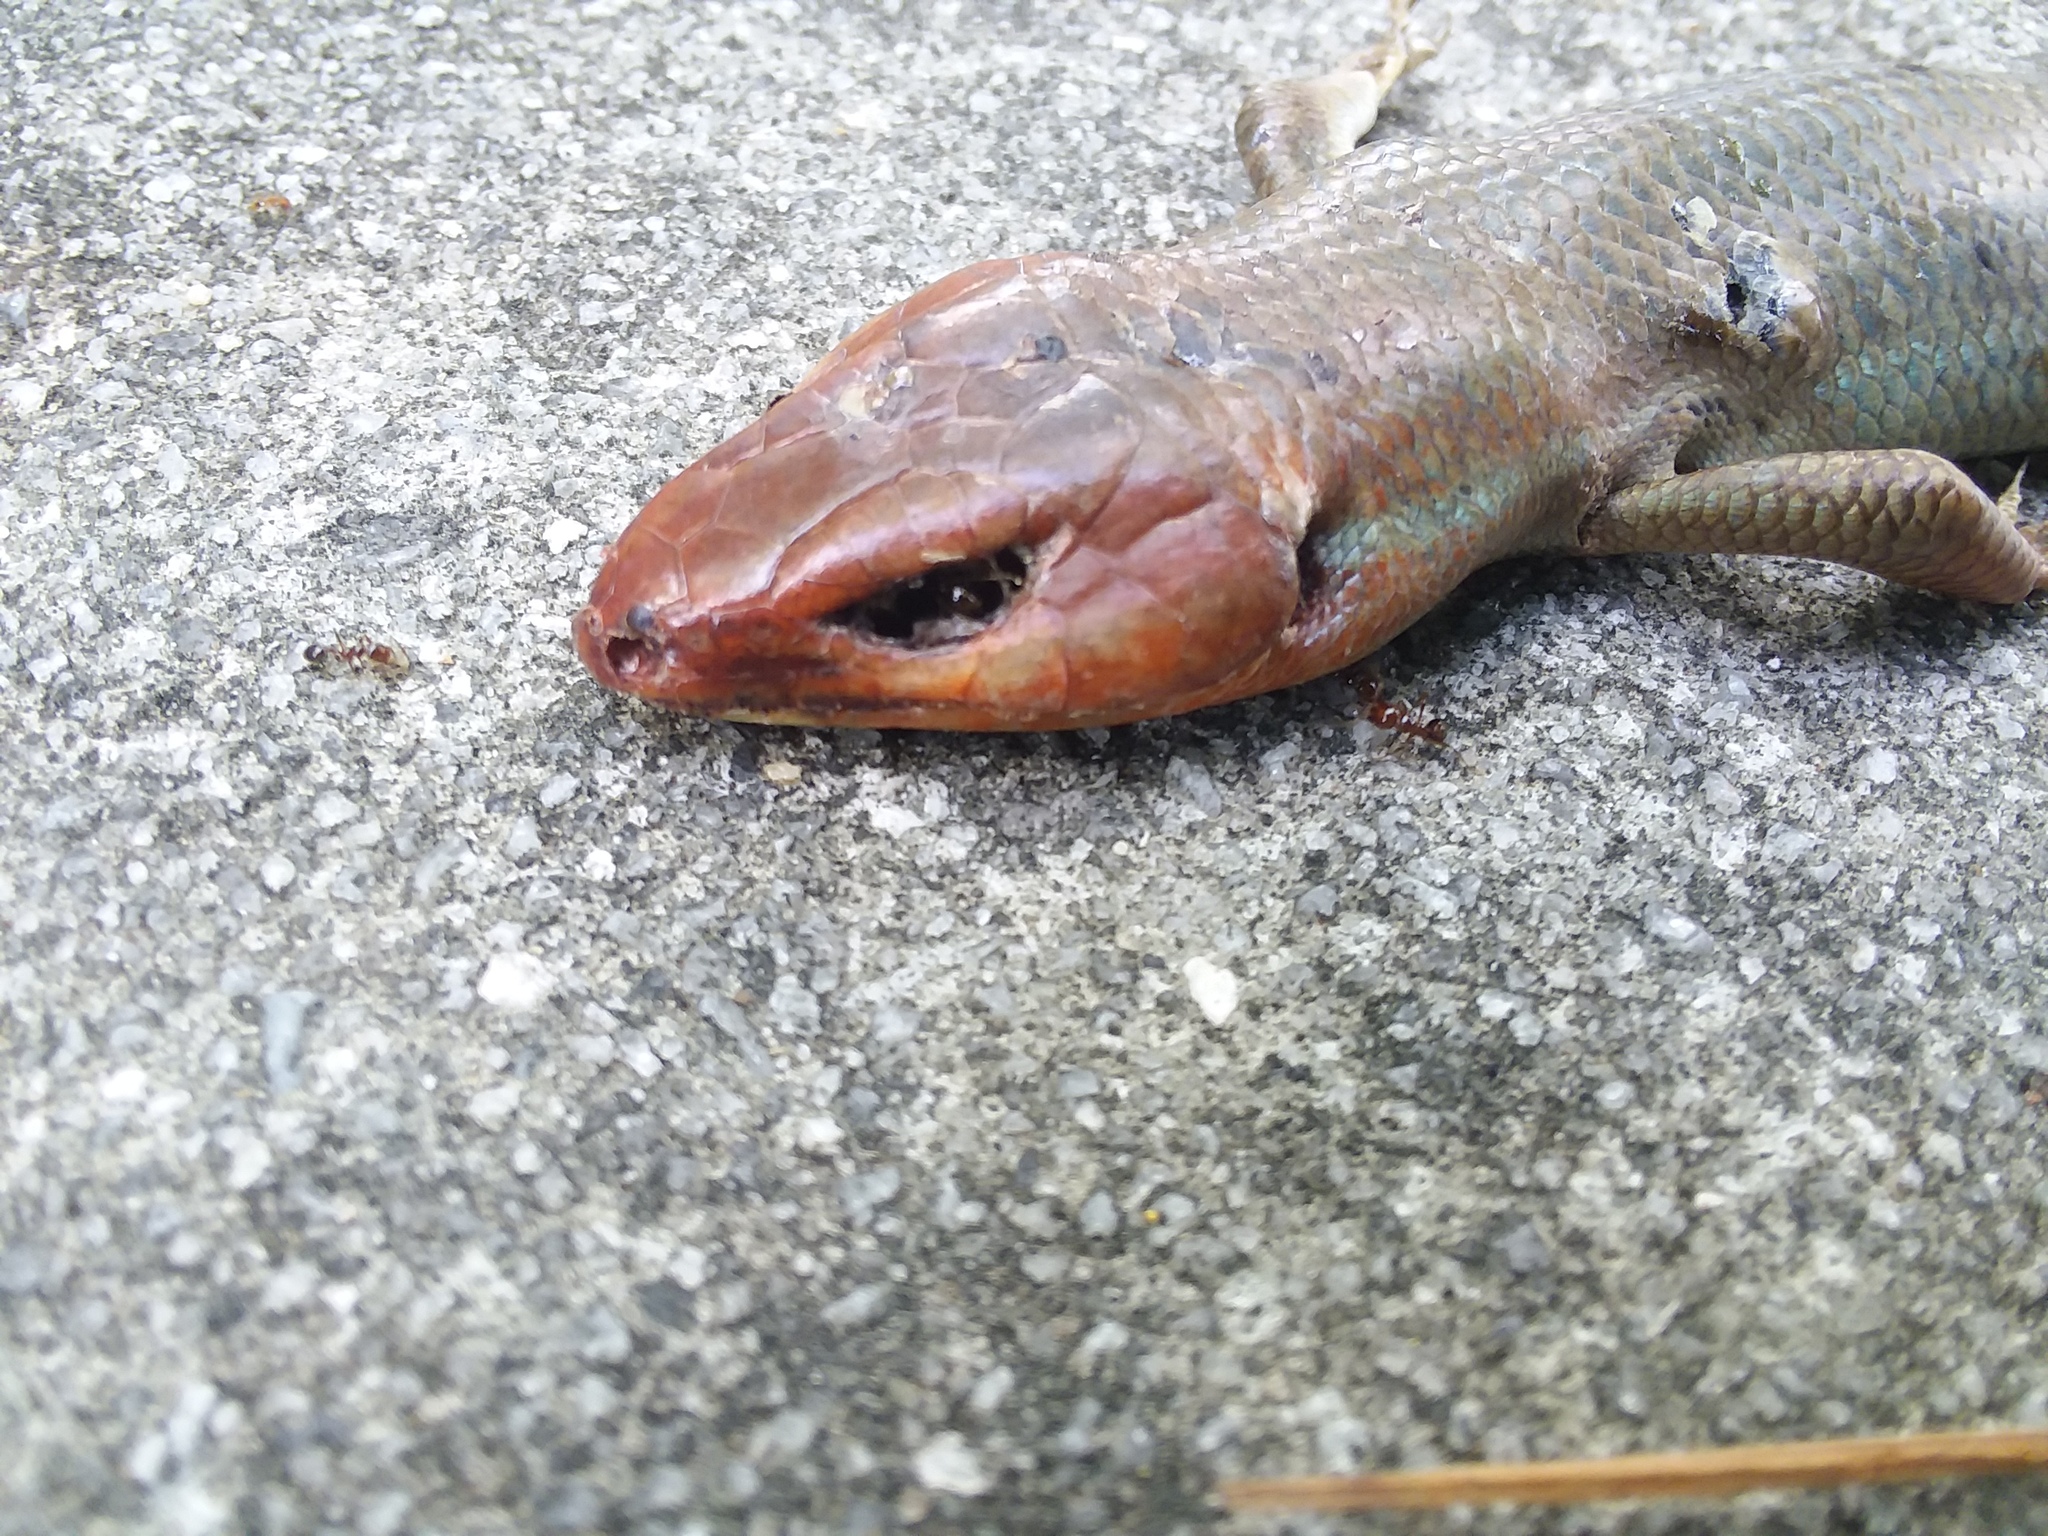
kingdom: Animalia
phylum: Chordata
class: Squamata
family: Scincidae
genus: Plestiodon
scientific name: Plestiodon laticeps
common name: Broadhead skink
